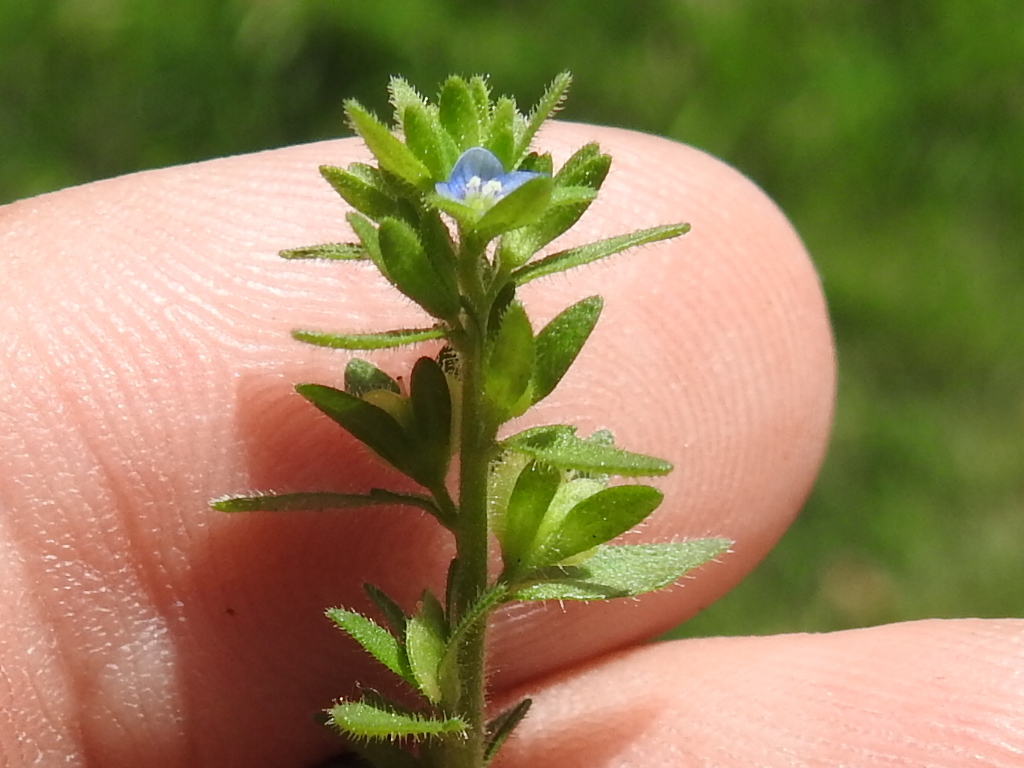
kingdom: Plantae
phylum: Tracheophyta
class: Magnoliopsida
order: Lamiales
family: Plantaginaceae
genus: Veronica
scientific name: Veronica arvensis
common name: Corn speedwell
